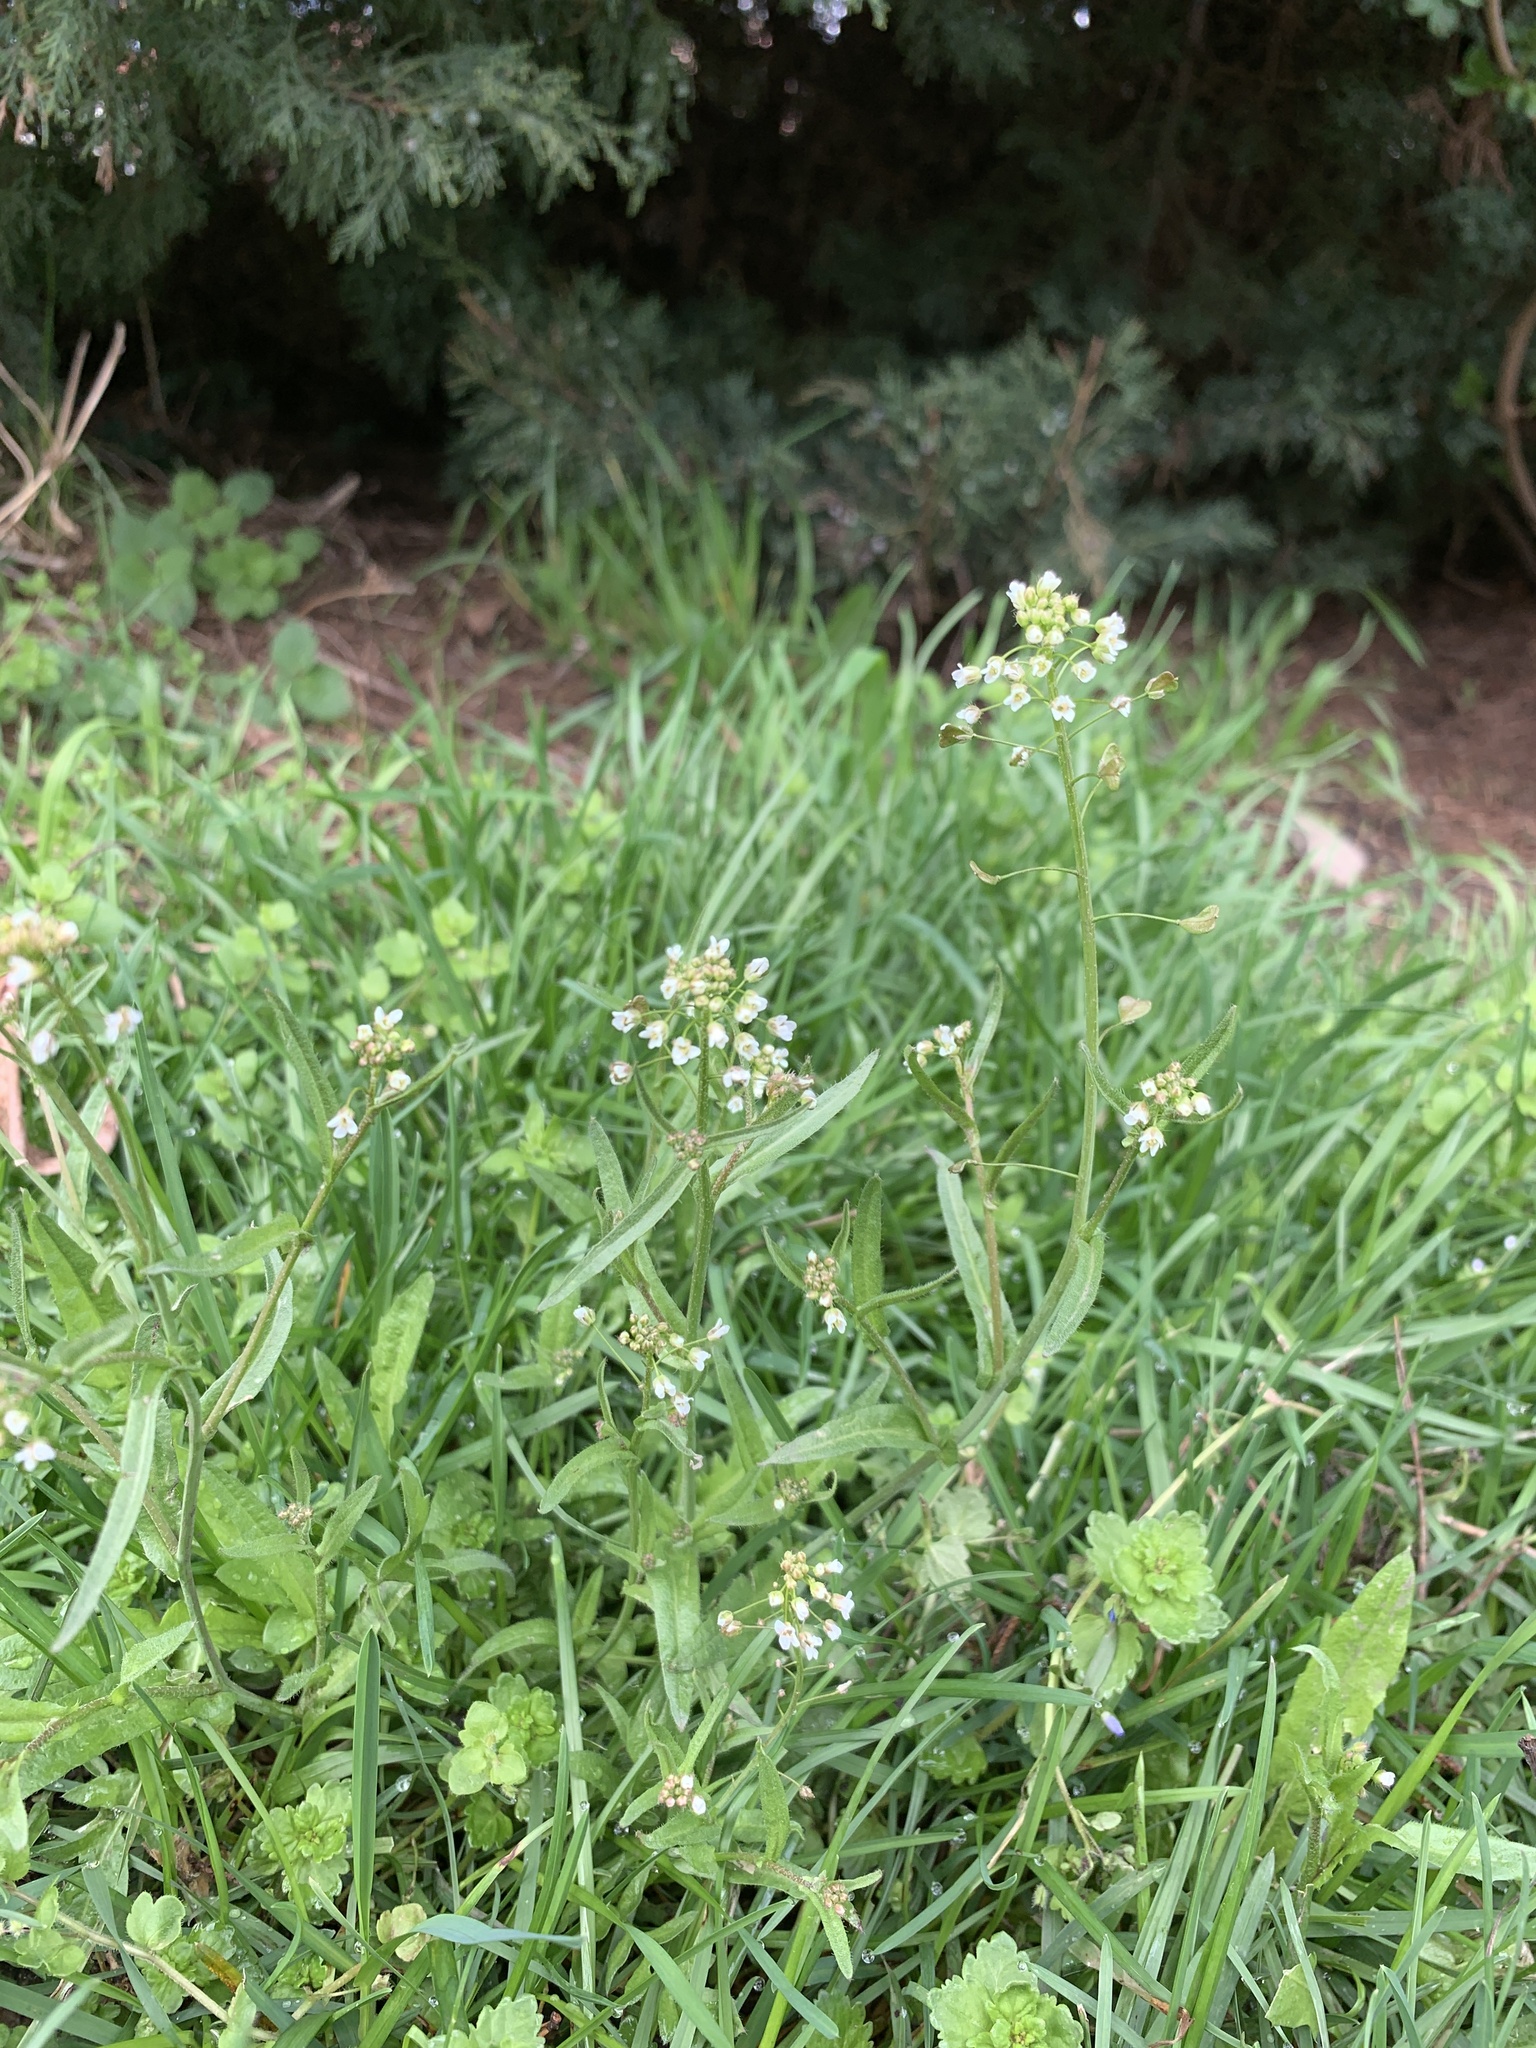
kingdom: Plantae
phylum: Tracheophyta
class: Magnoliopsida
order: Brassicales
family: Brassicaceae
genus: Capsella
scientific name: Capsella bursa-pastoris
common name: Shepherd's purse
